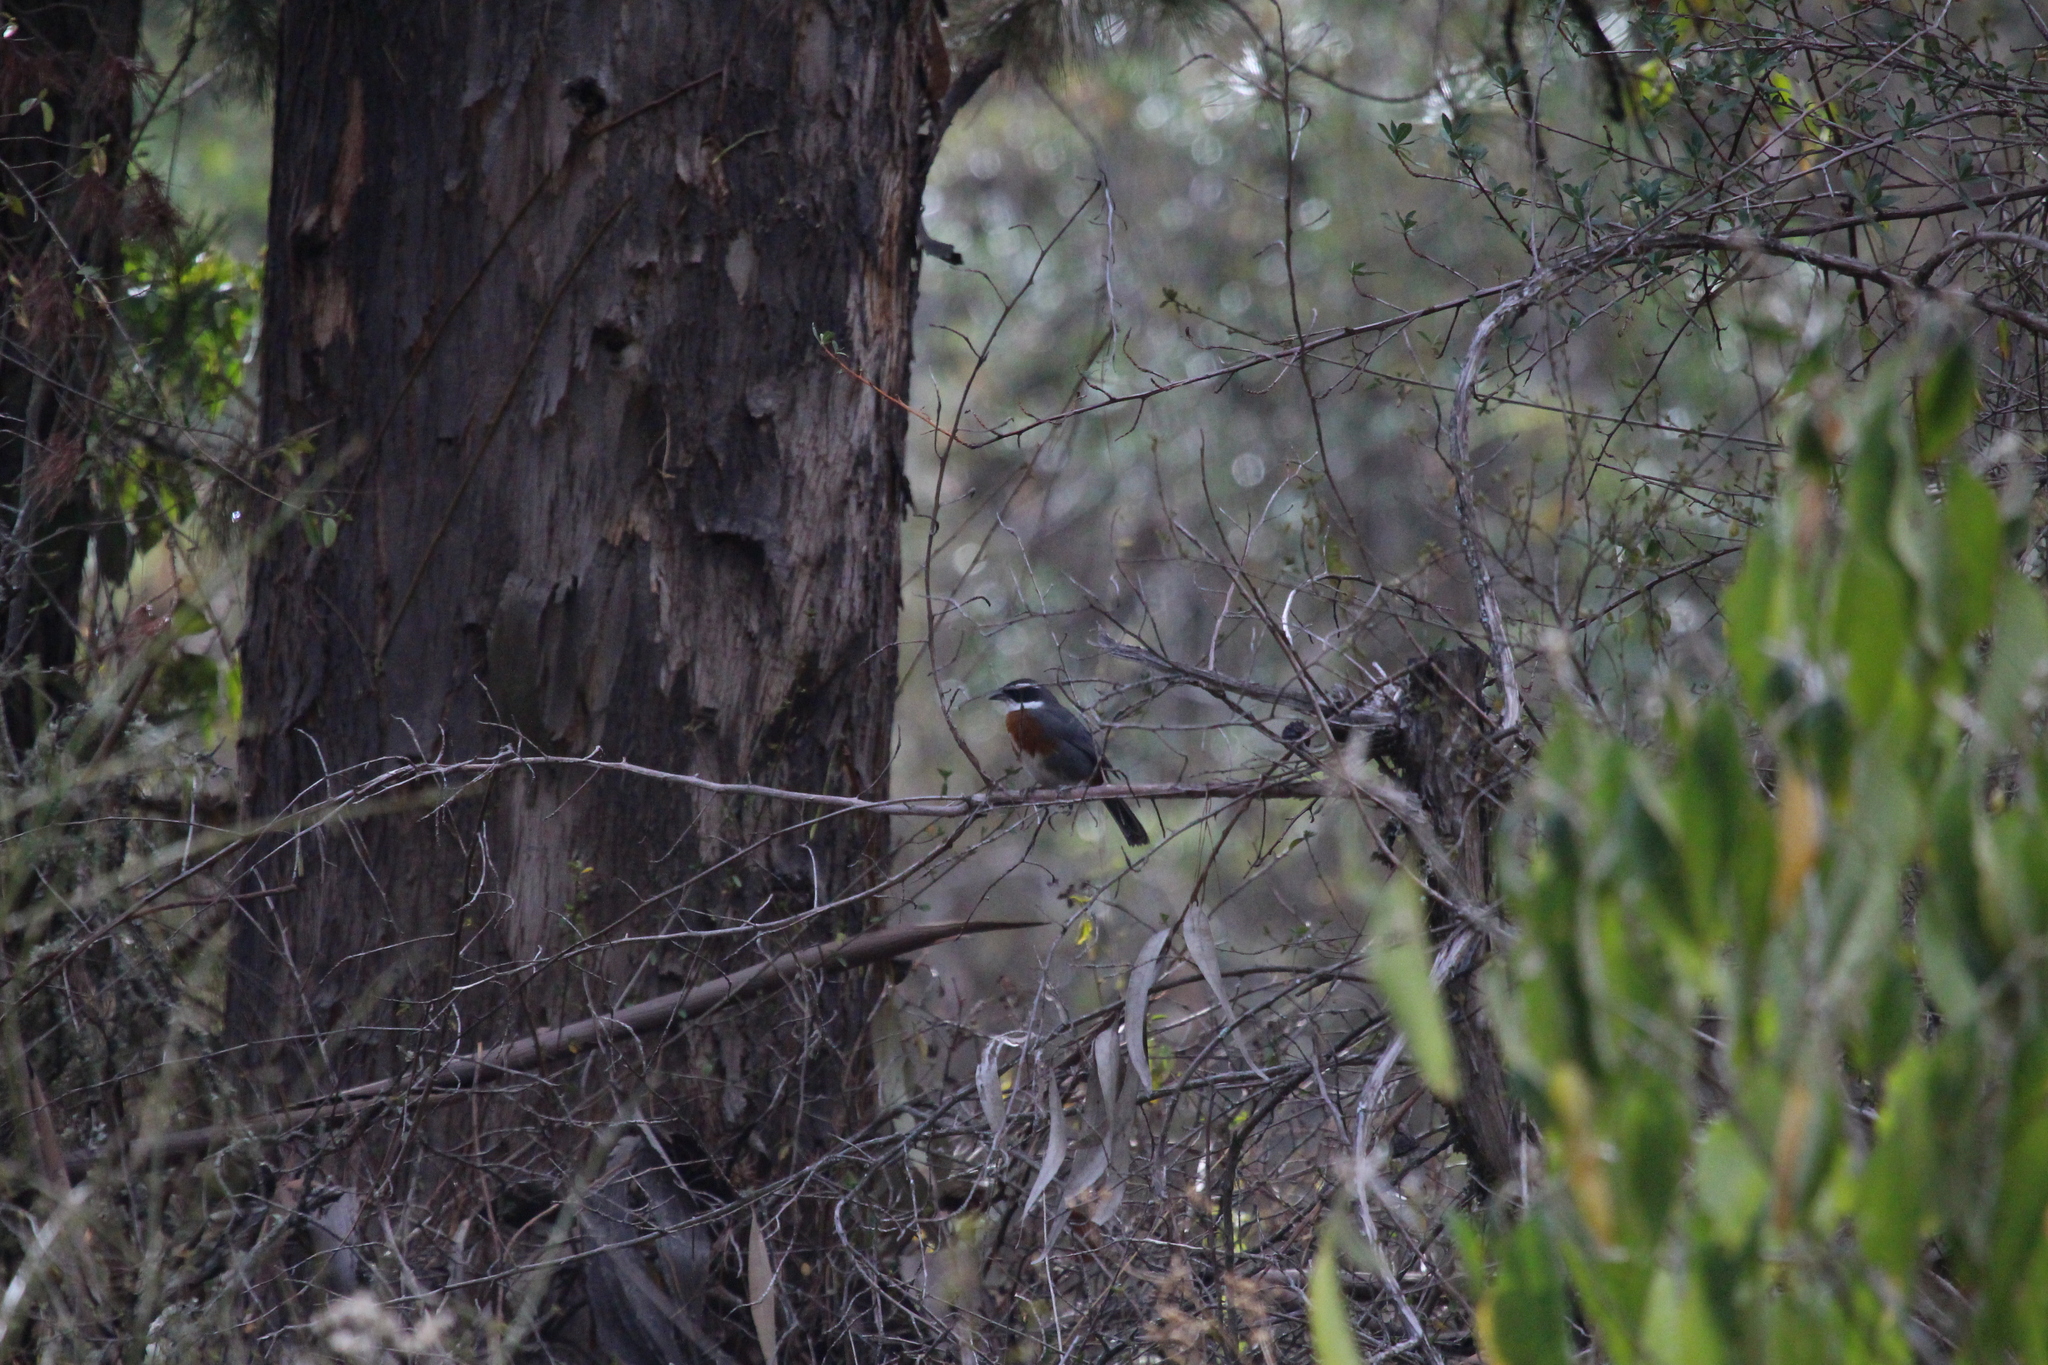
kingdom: Animalia
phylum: Chordata
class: Aves
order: Passeriformes
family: Thraupidae
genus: Poospizopsis
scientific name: Poospizopsis caesar
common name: Chestnut-breasted mountain-finch
